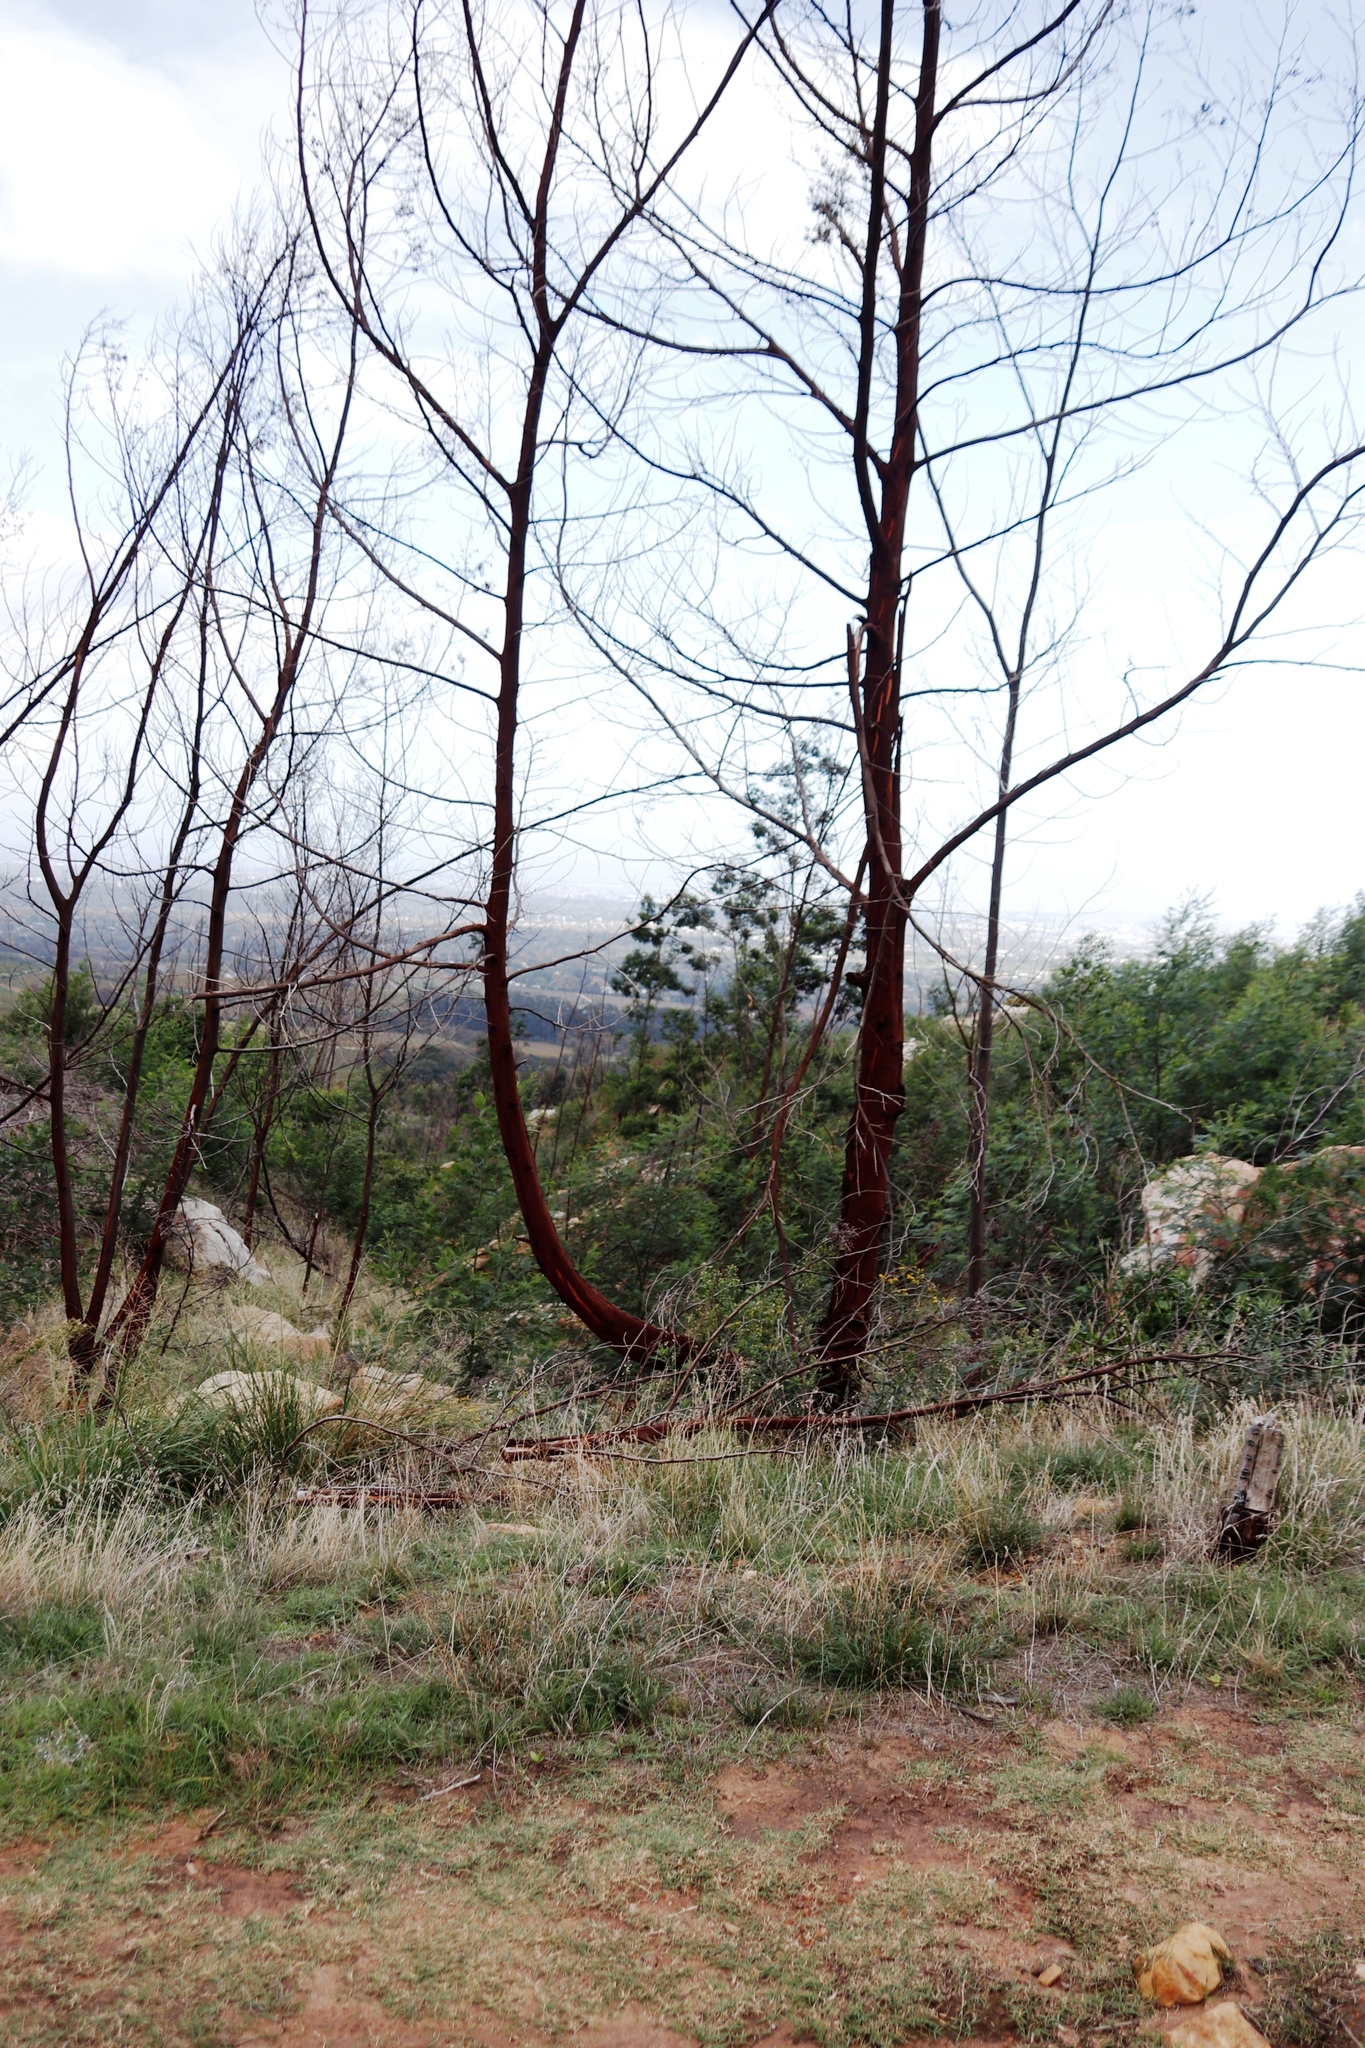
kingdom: Plantae
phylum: Tracheophyta
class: Magnoliopsida
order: Fabales
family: Fabaceae
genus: Acacia
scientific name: Acacia mearnsii
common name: Black wattle
